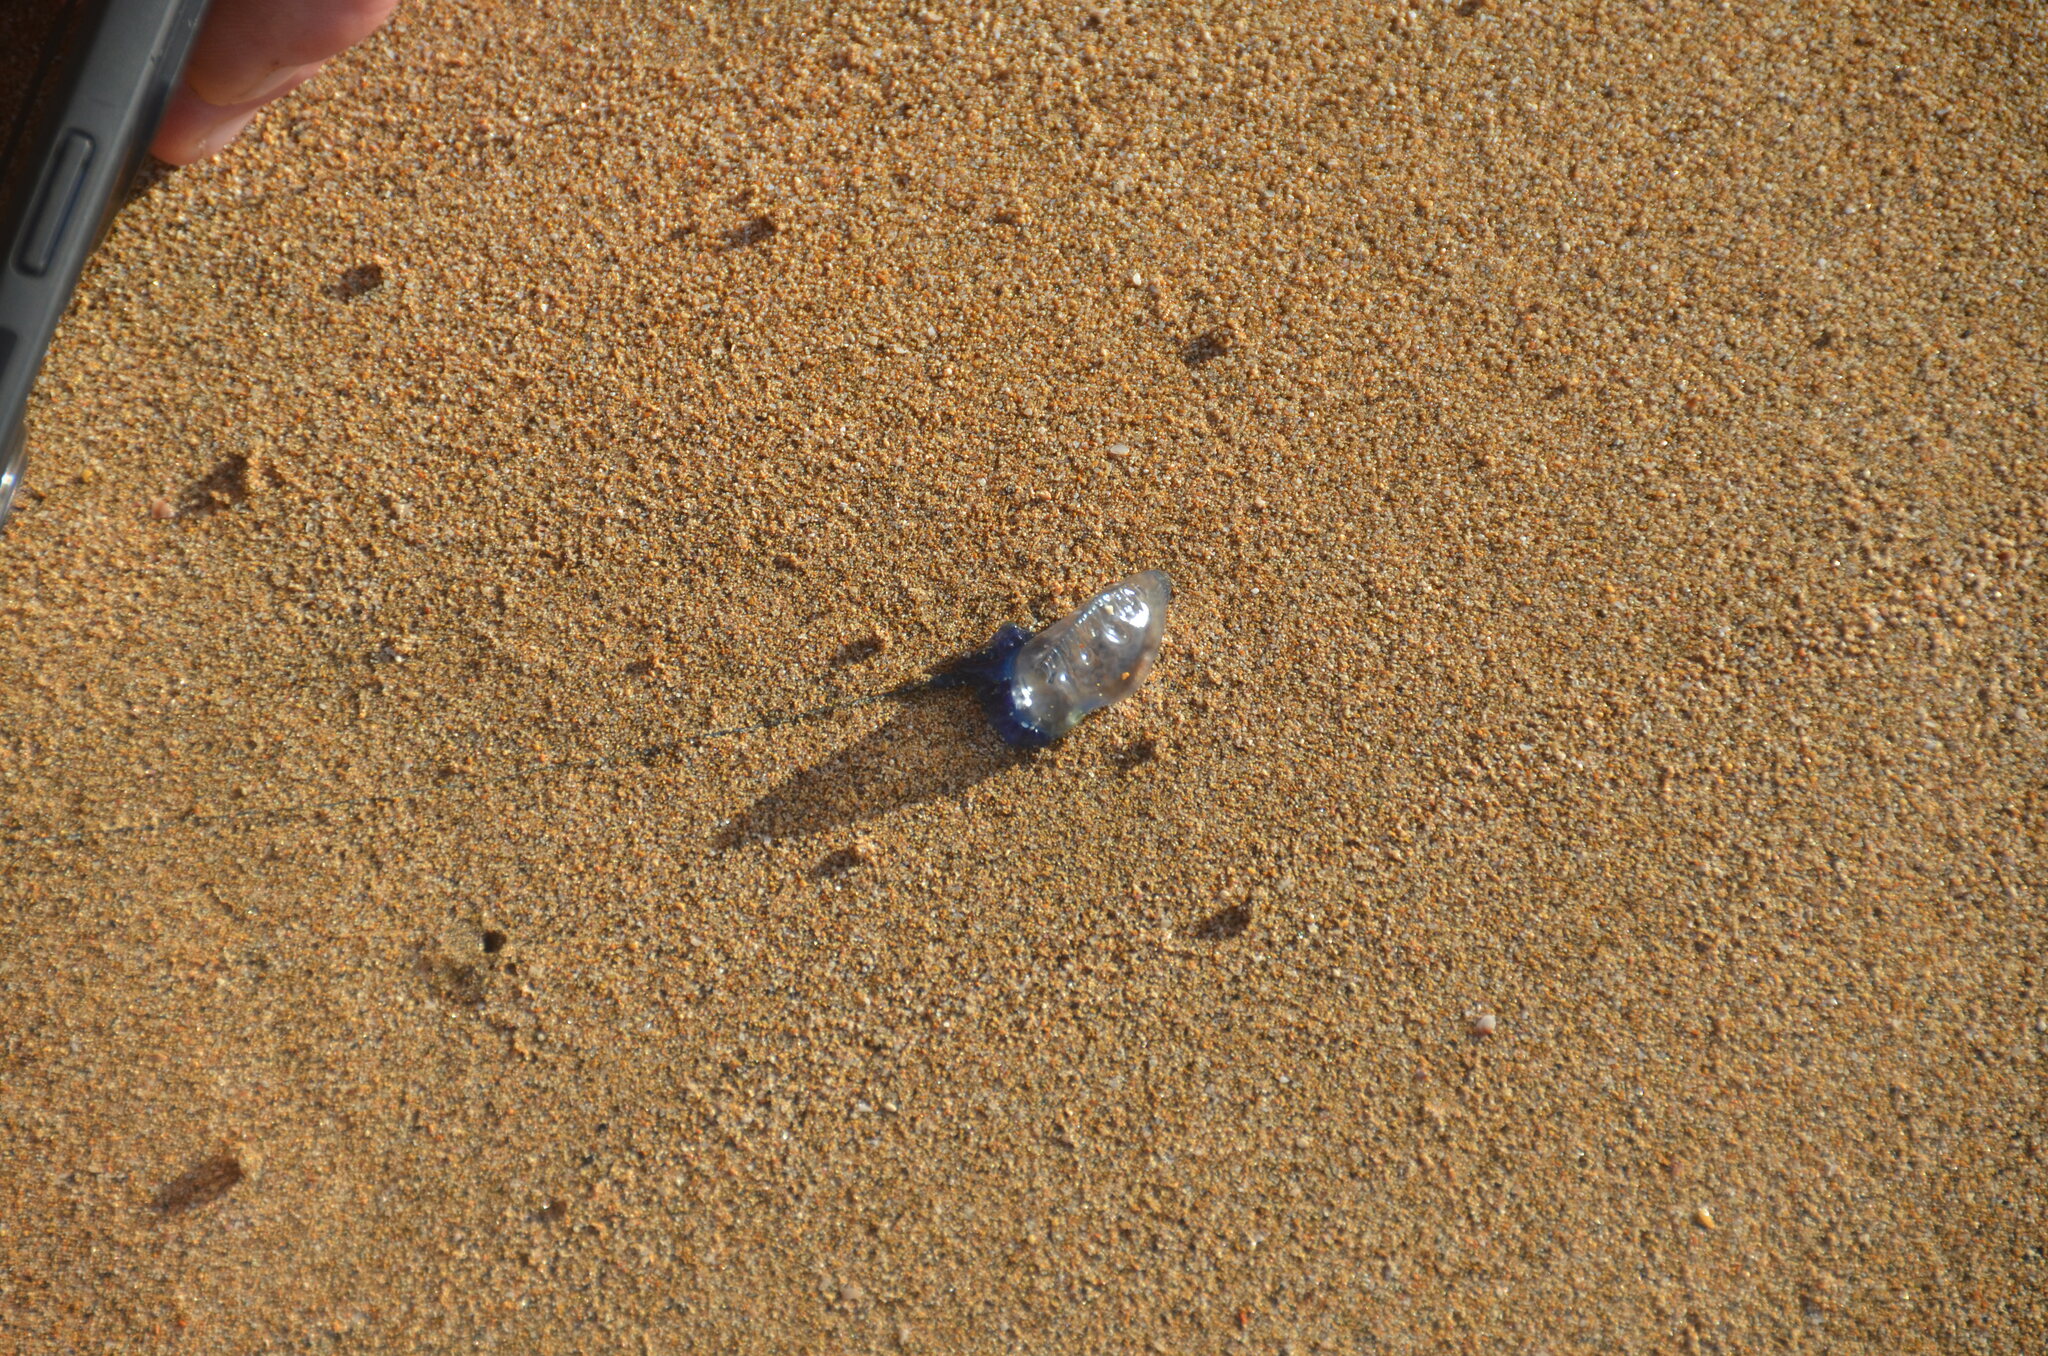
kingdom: Animalia
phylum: Cnidaria
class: Hydrozoa
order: Siphonophorae
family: Physaliidae
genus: Physalia
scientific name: Physalia physalis
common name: Portuguese man-of-war
